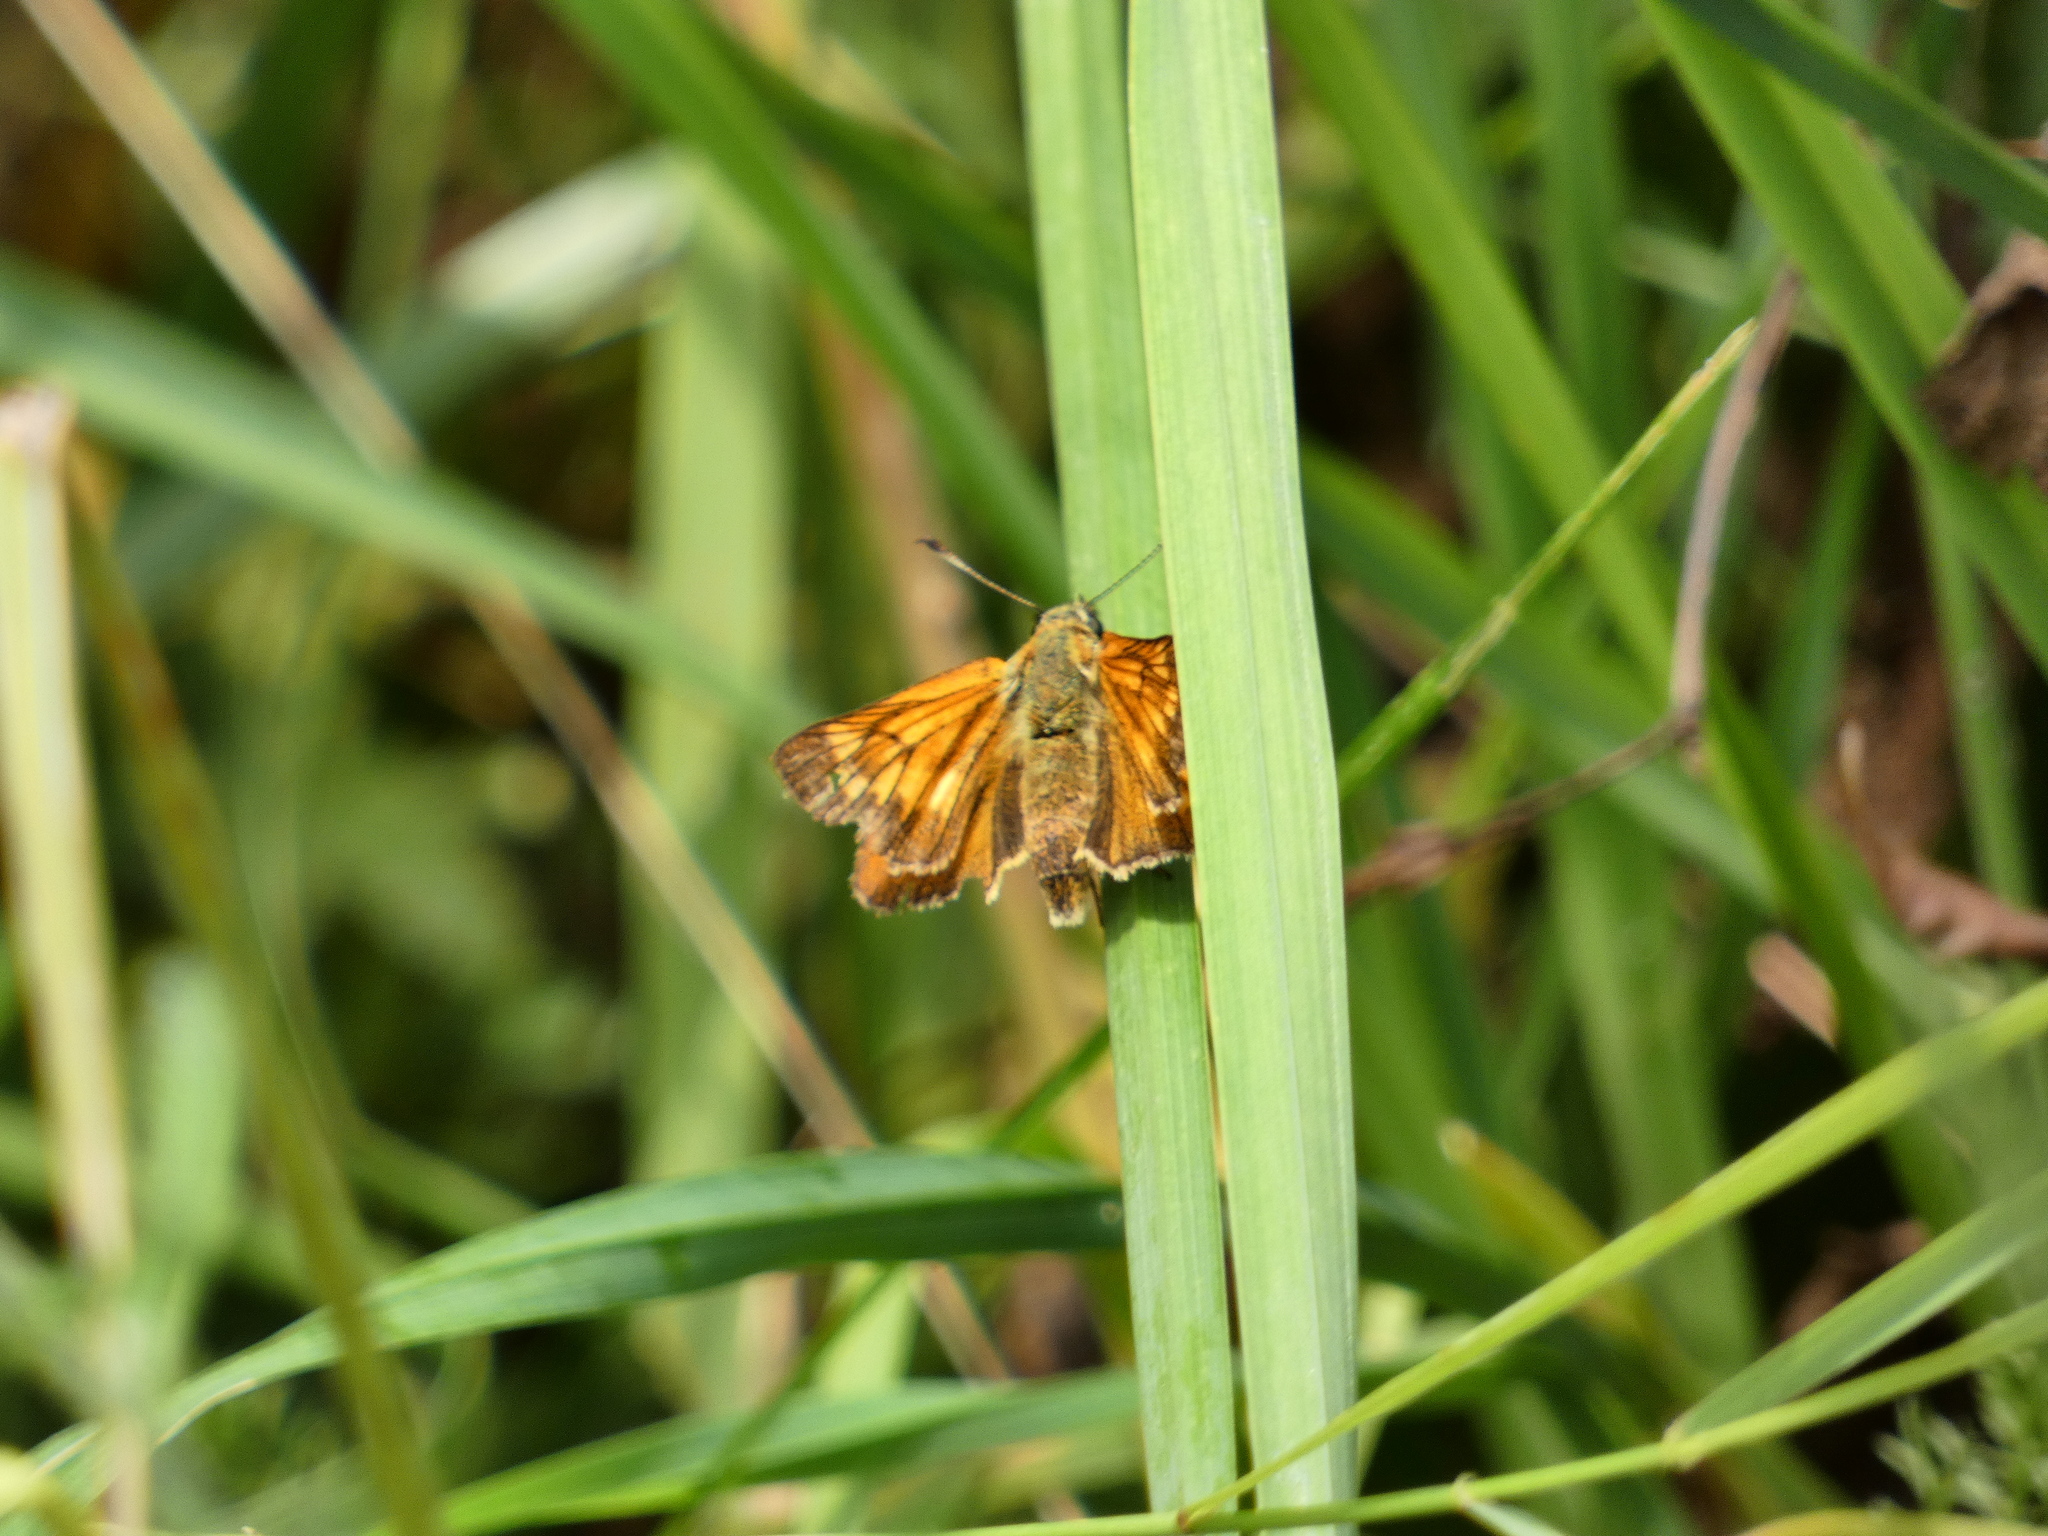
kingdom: Animalia
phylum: Arthropoda
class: Insecta
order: Lepidoptera
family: Hesperiidae
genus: Ochlodes
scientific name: Ochlodes venata
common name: Large skipper
